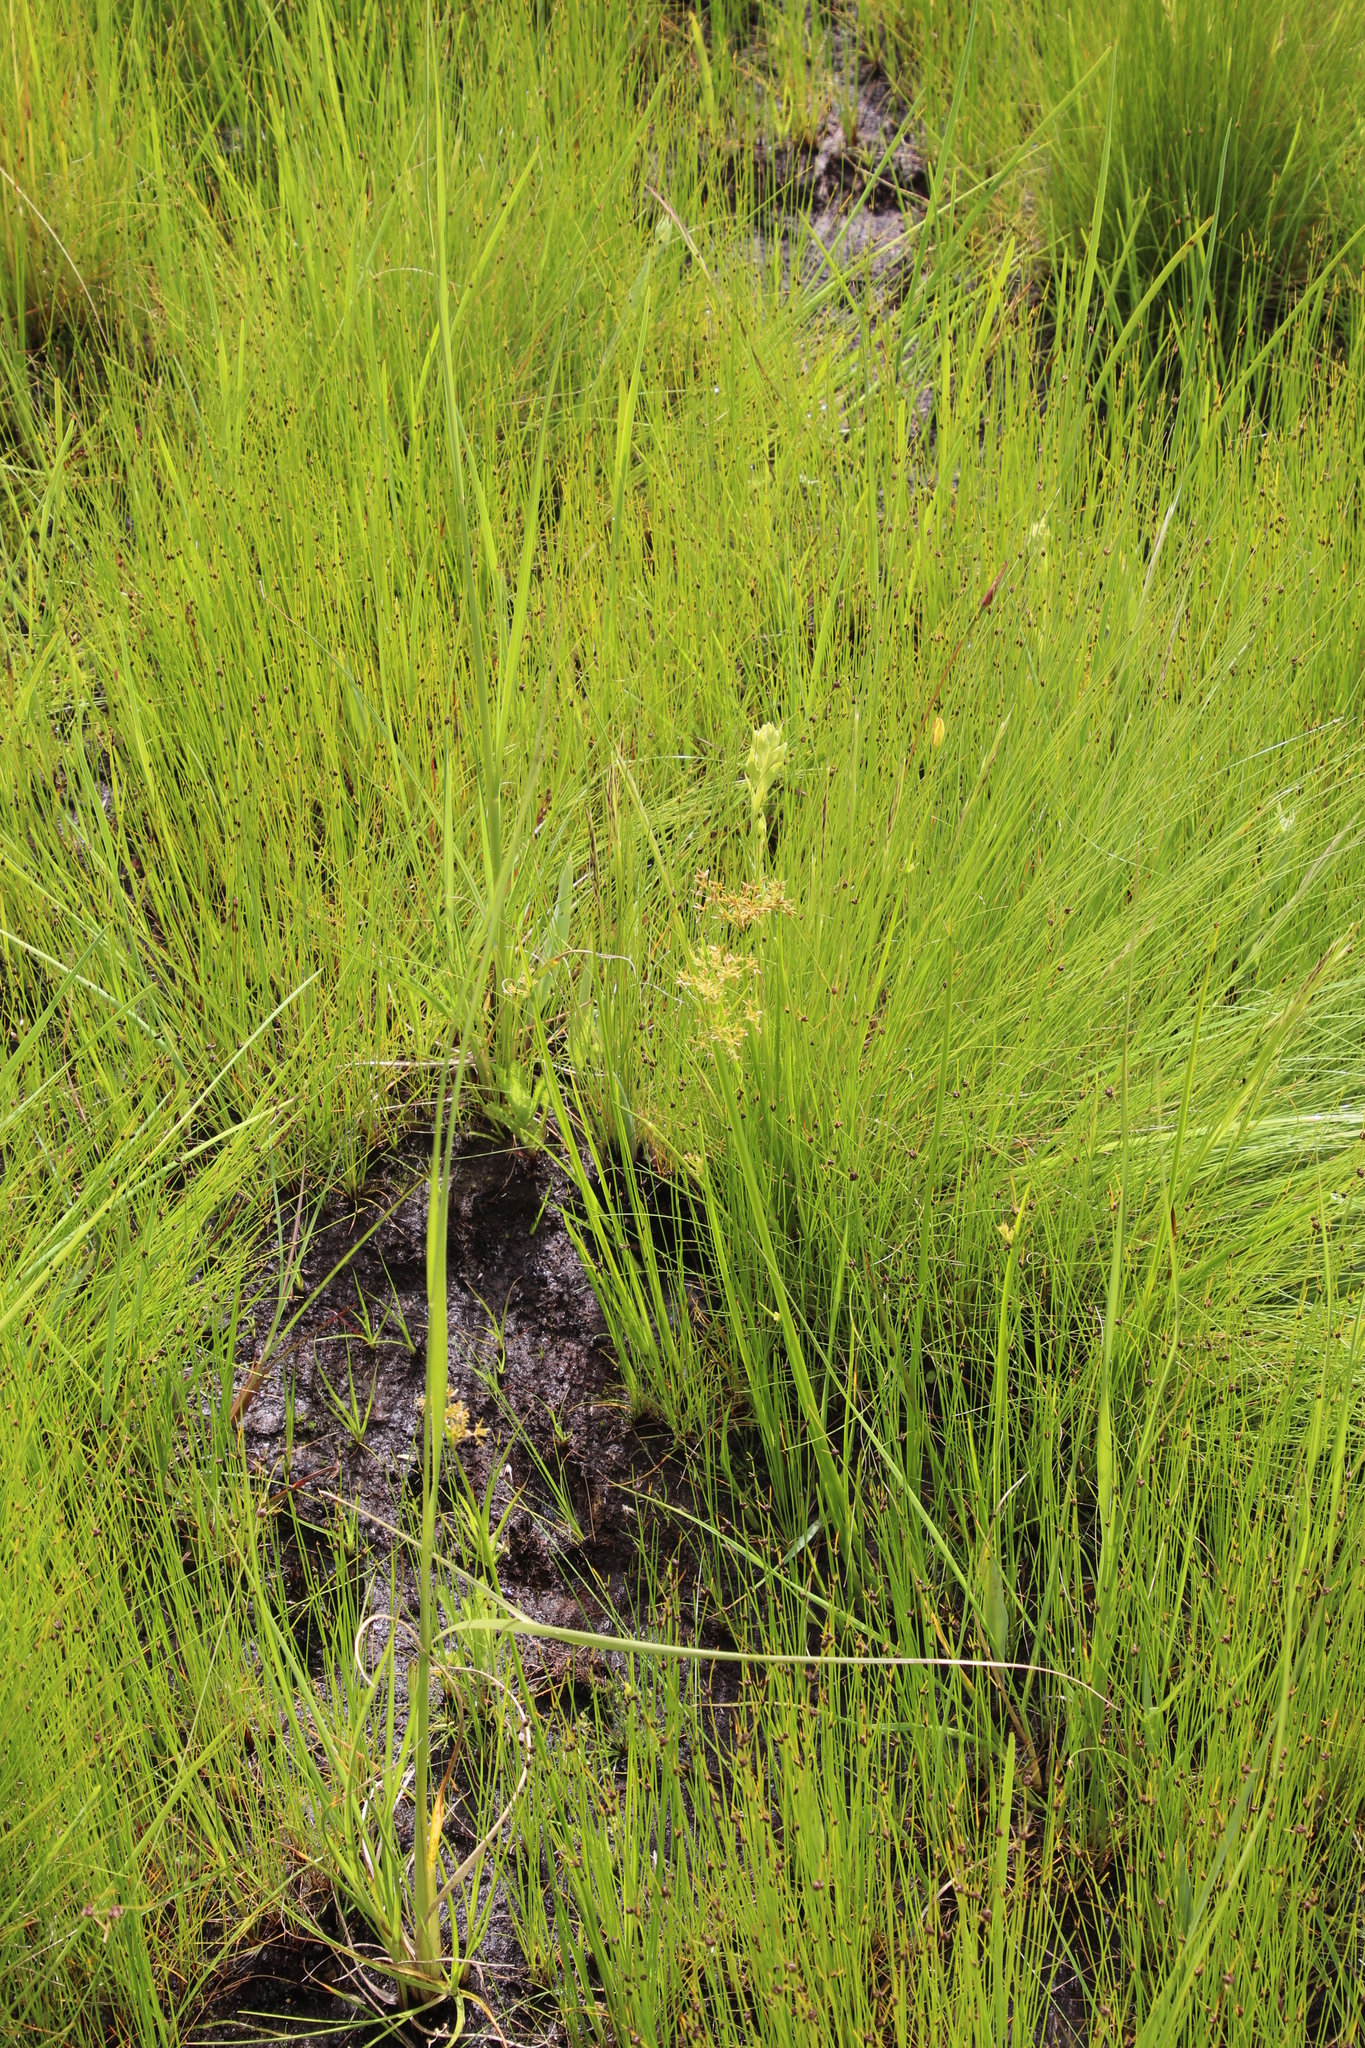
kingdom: Plantae
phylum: Tracheophyta
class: Liliopsida
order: Poales
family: Cyperaceae
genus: Cyperus
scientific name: Cyperus denudatus
